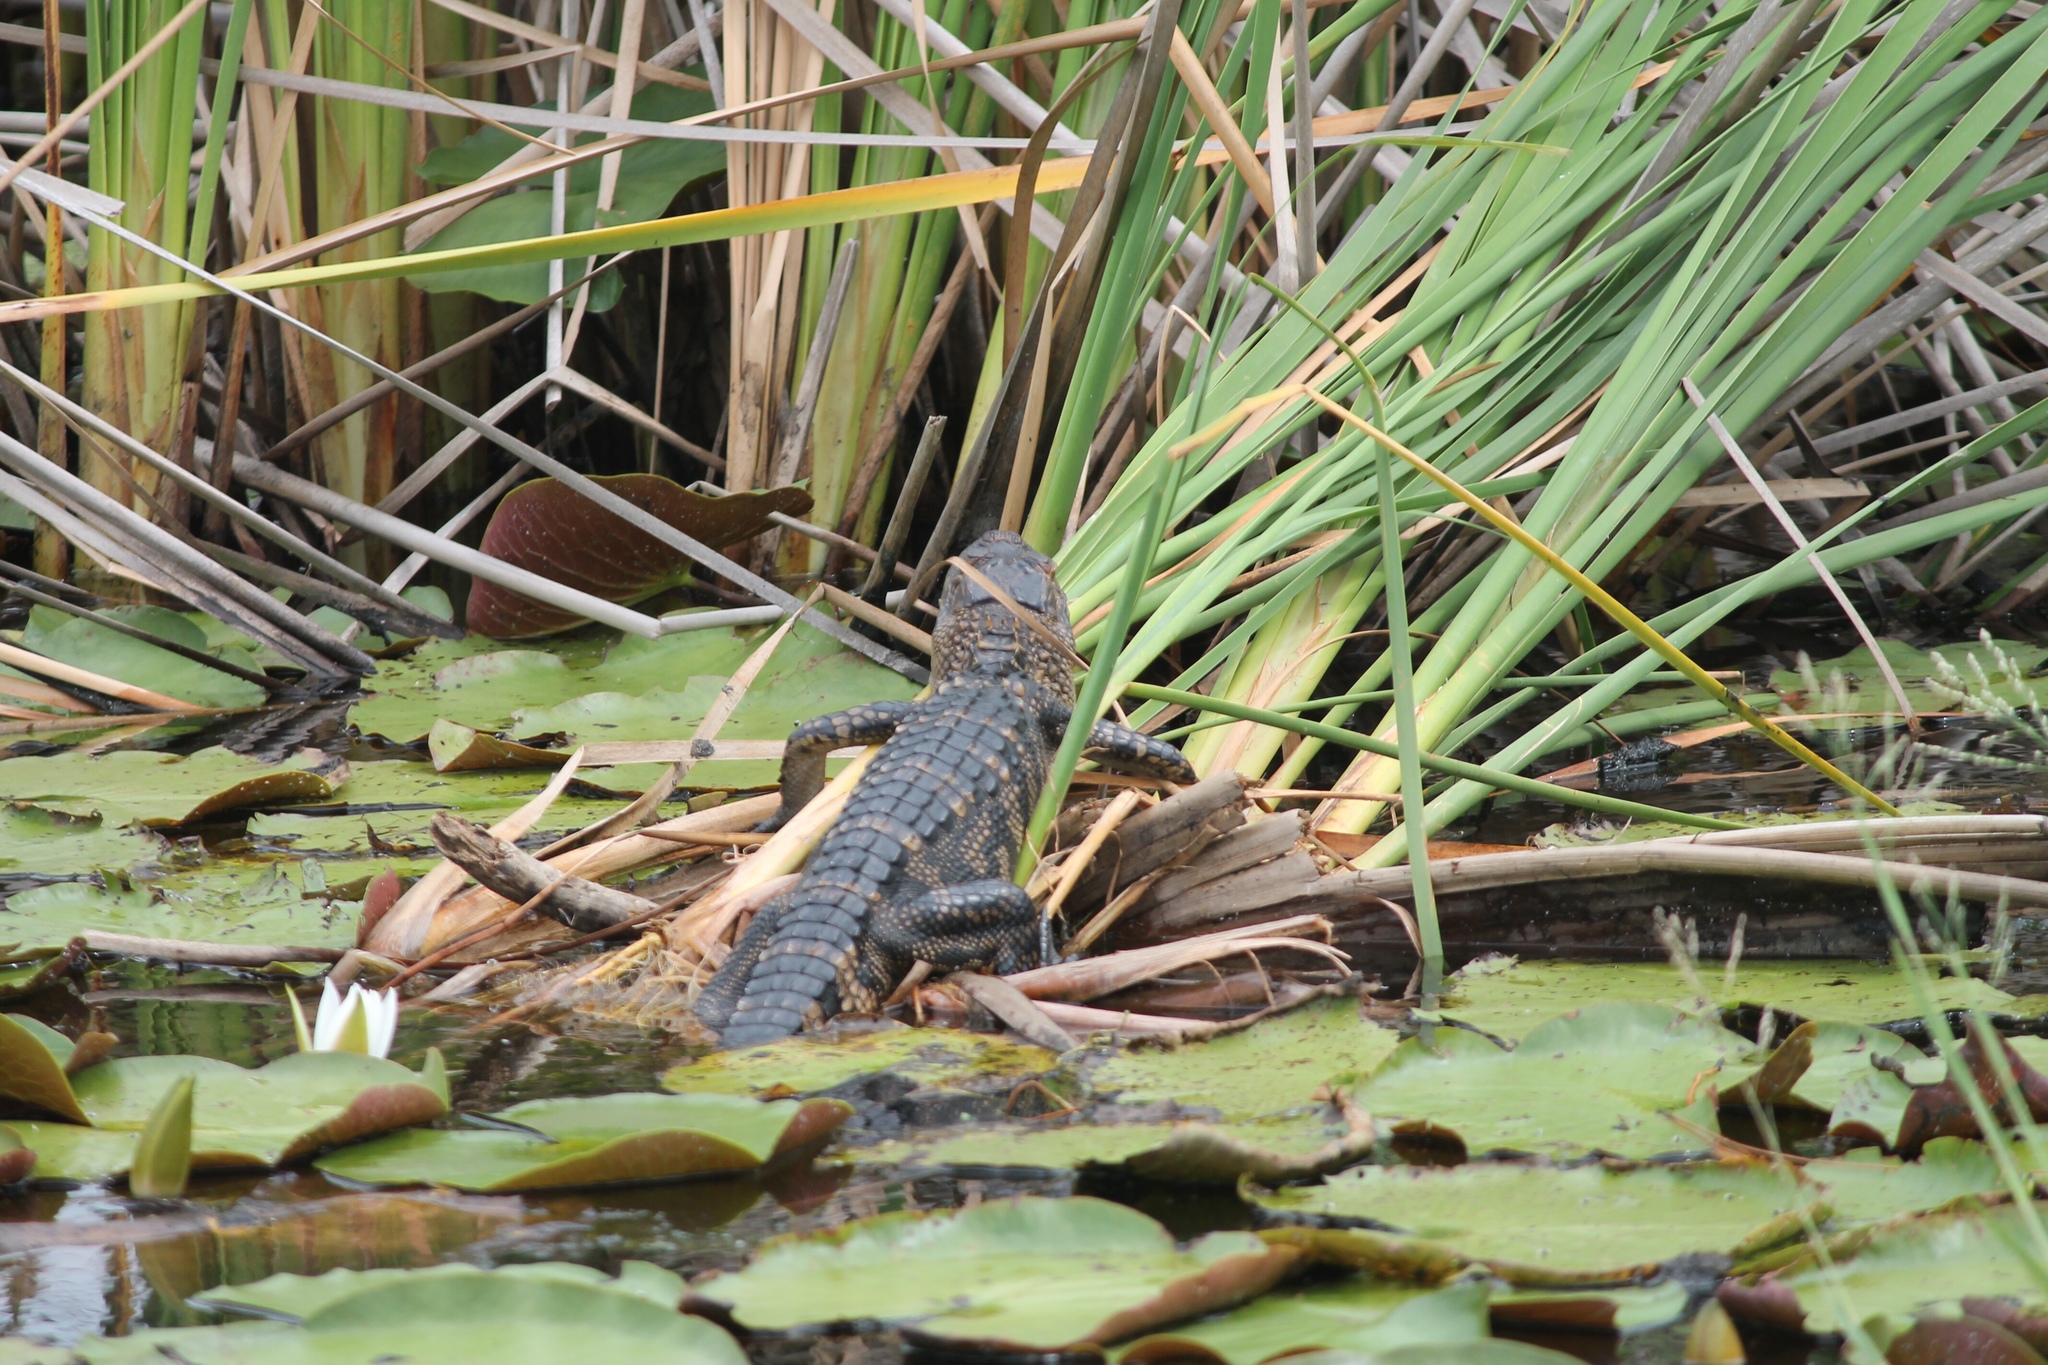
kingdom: Animalia
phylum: Chordata
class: Crocodylia
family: Alligatoridae
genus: Alligator
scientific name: Alligator mississippiensis
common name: American alligator
